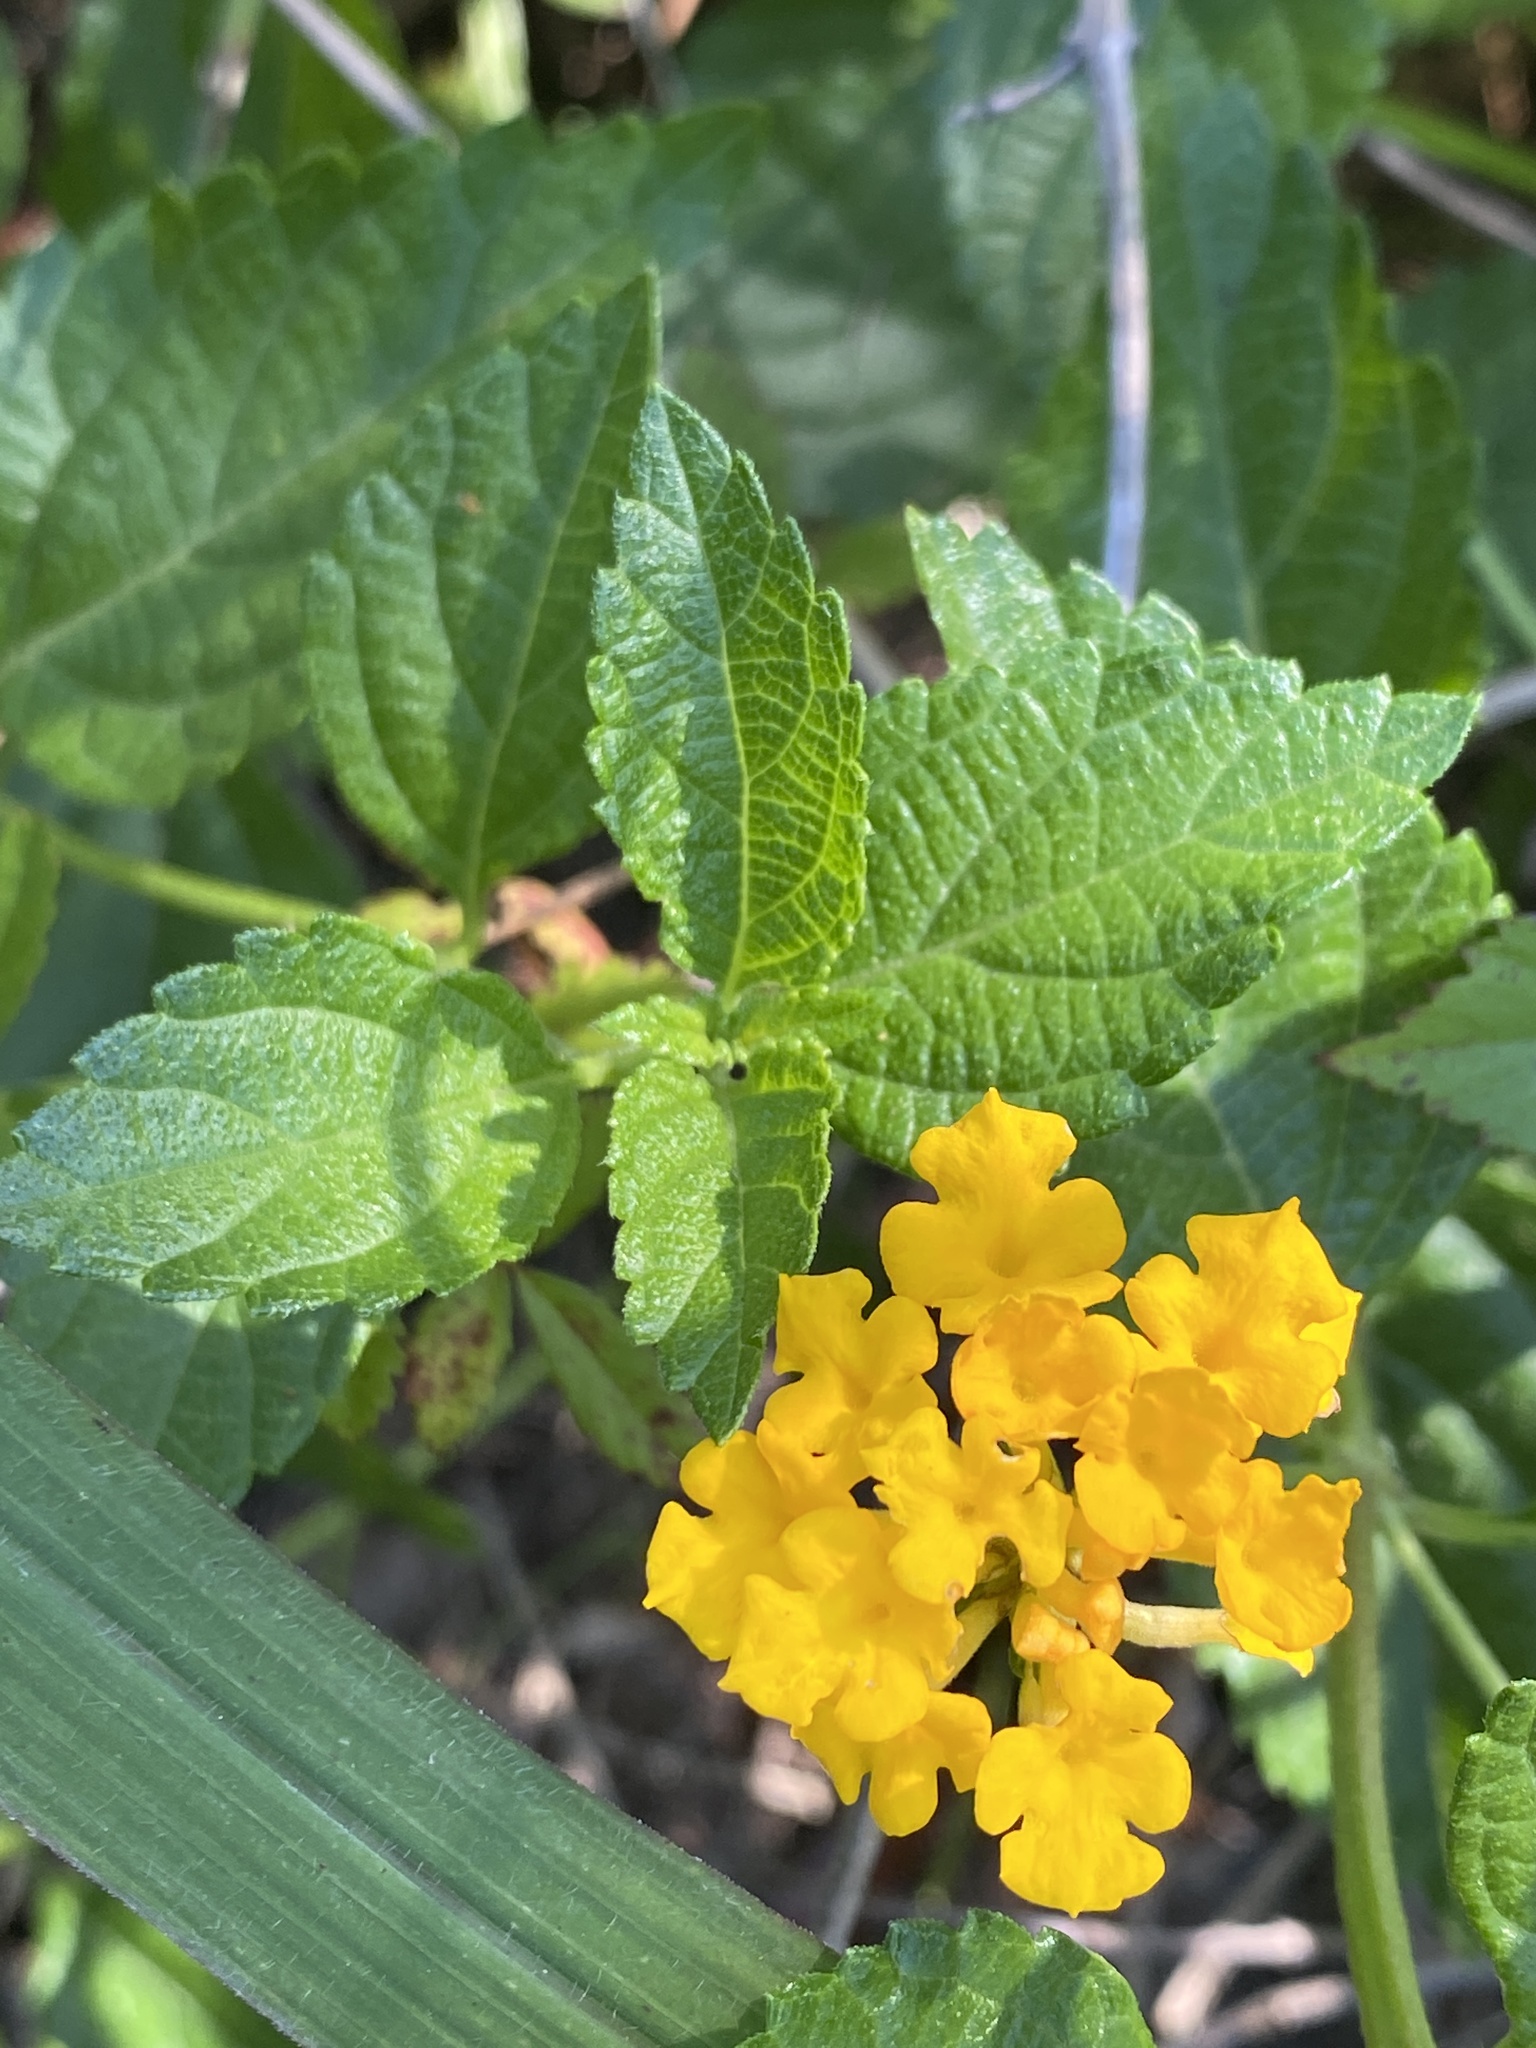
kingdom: Plantae
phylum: Tracheophyta
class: Magnoliopsida
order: Lamiales
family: Verbenaceae
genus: Lantana
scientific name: Lantana strigocamara
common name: Lantana
